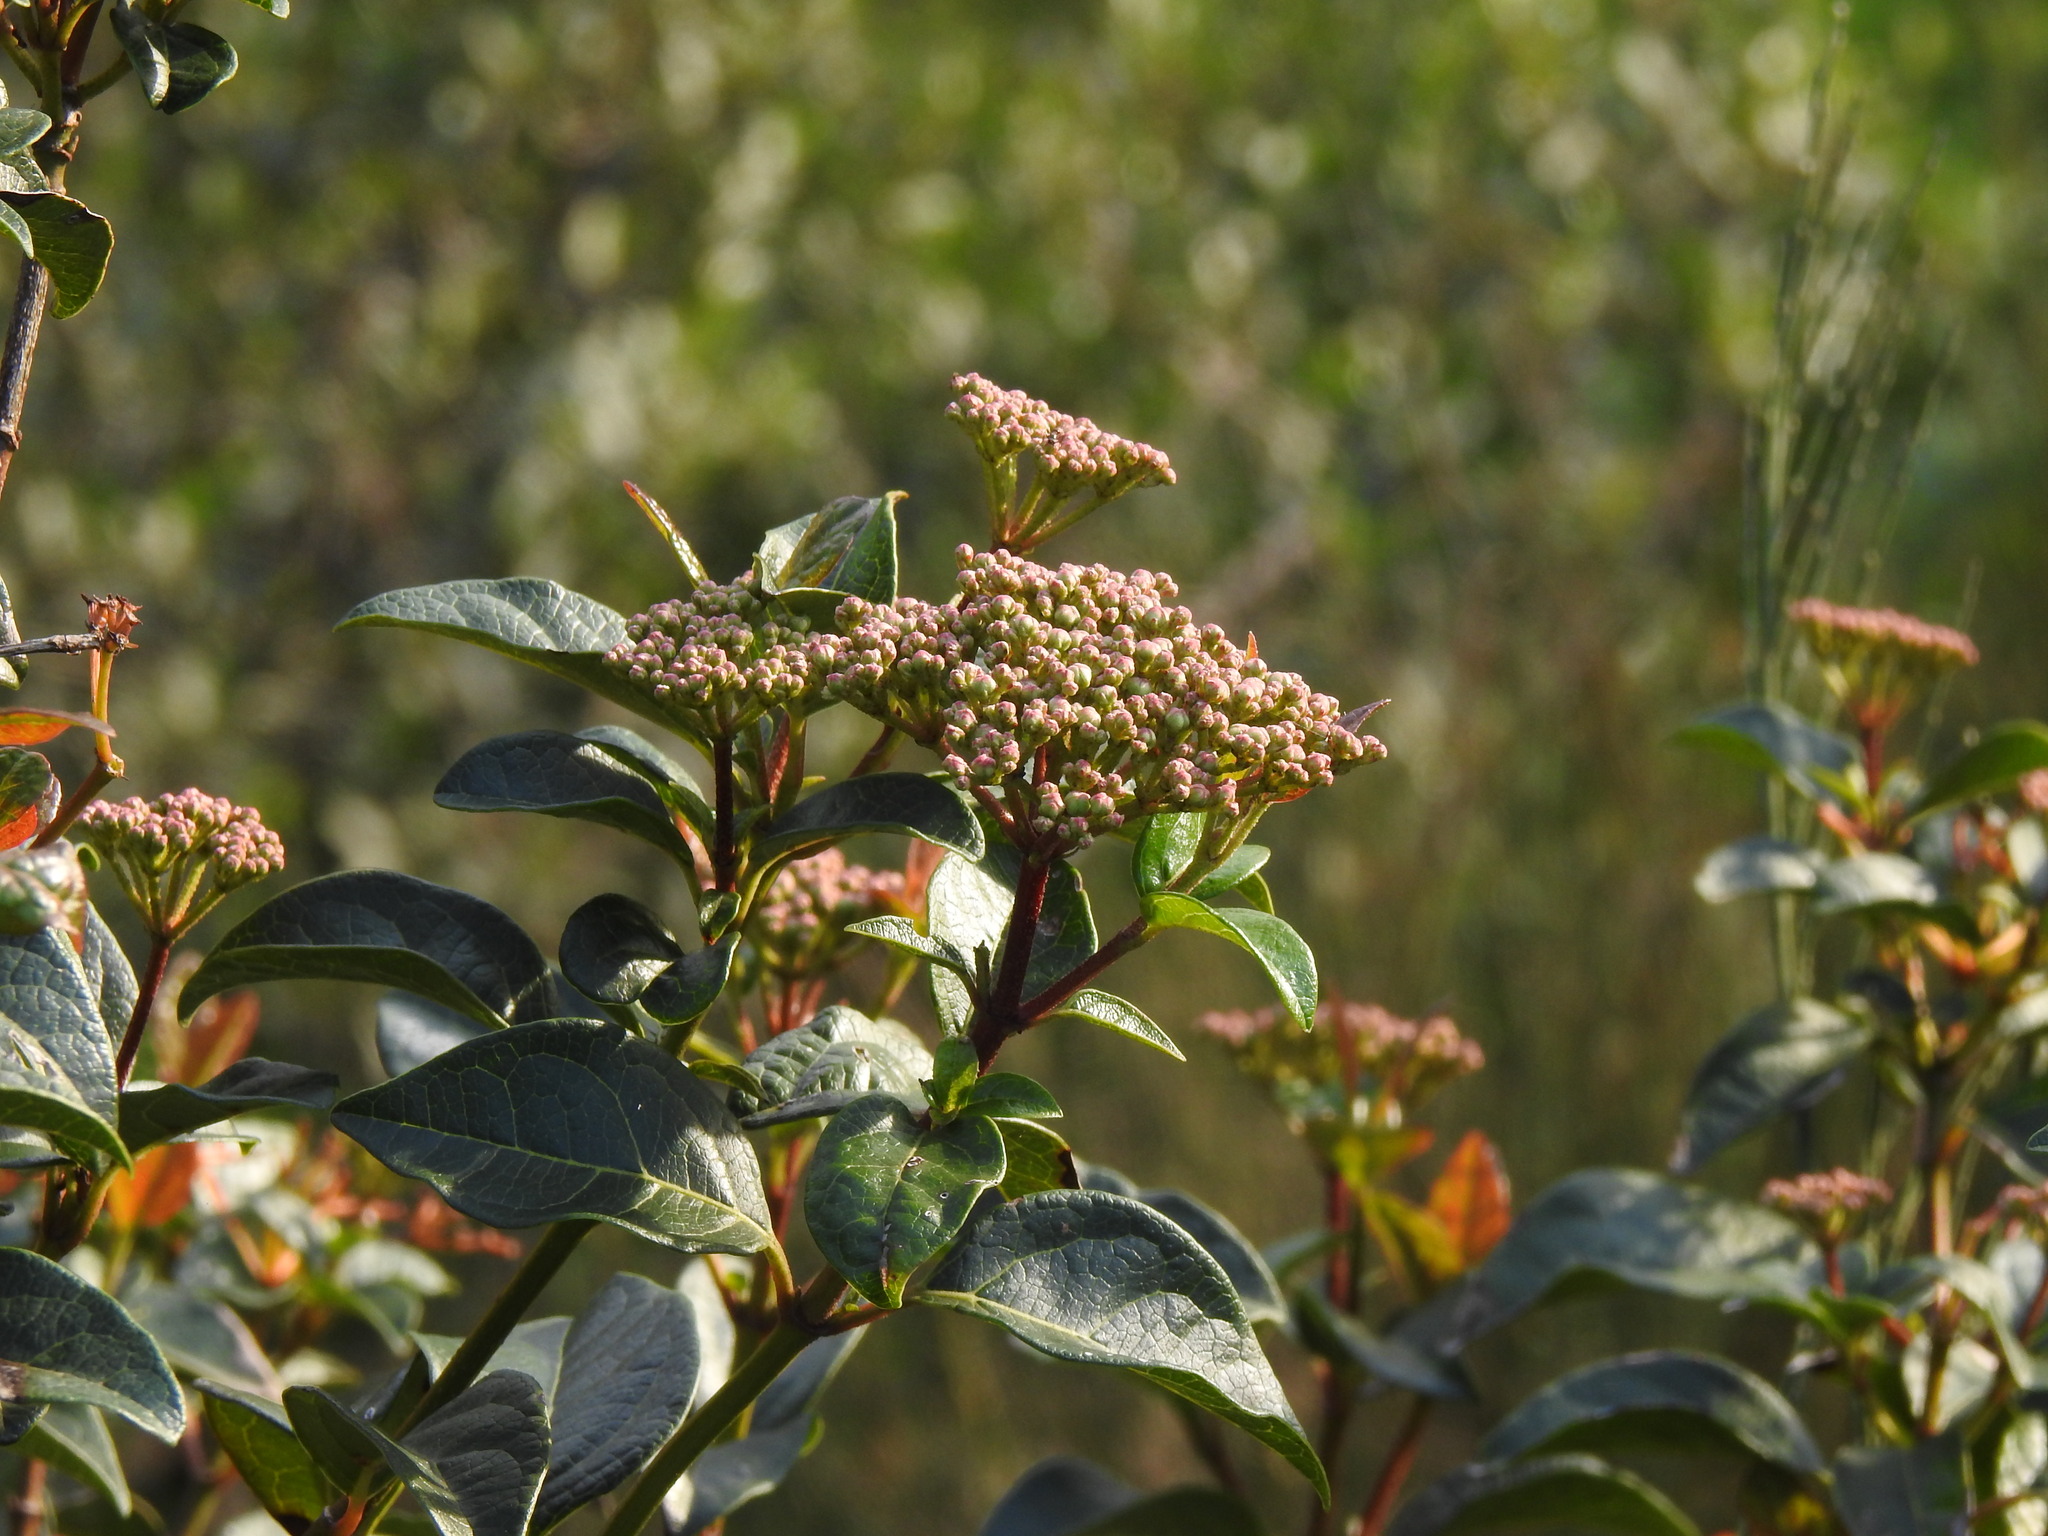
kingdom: Plantae
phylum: Tracheophyta
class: Magnoliopsida
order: Dipsacales
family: Viburnaceae
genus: Viburnum
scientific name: Viburnum tinus
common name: Laurustinus
